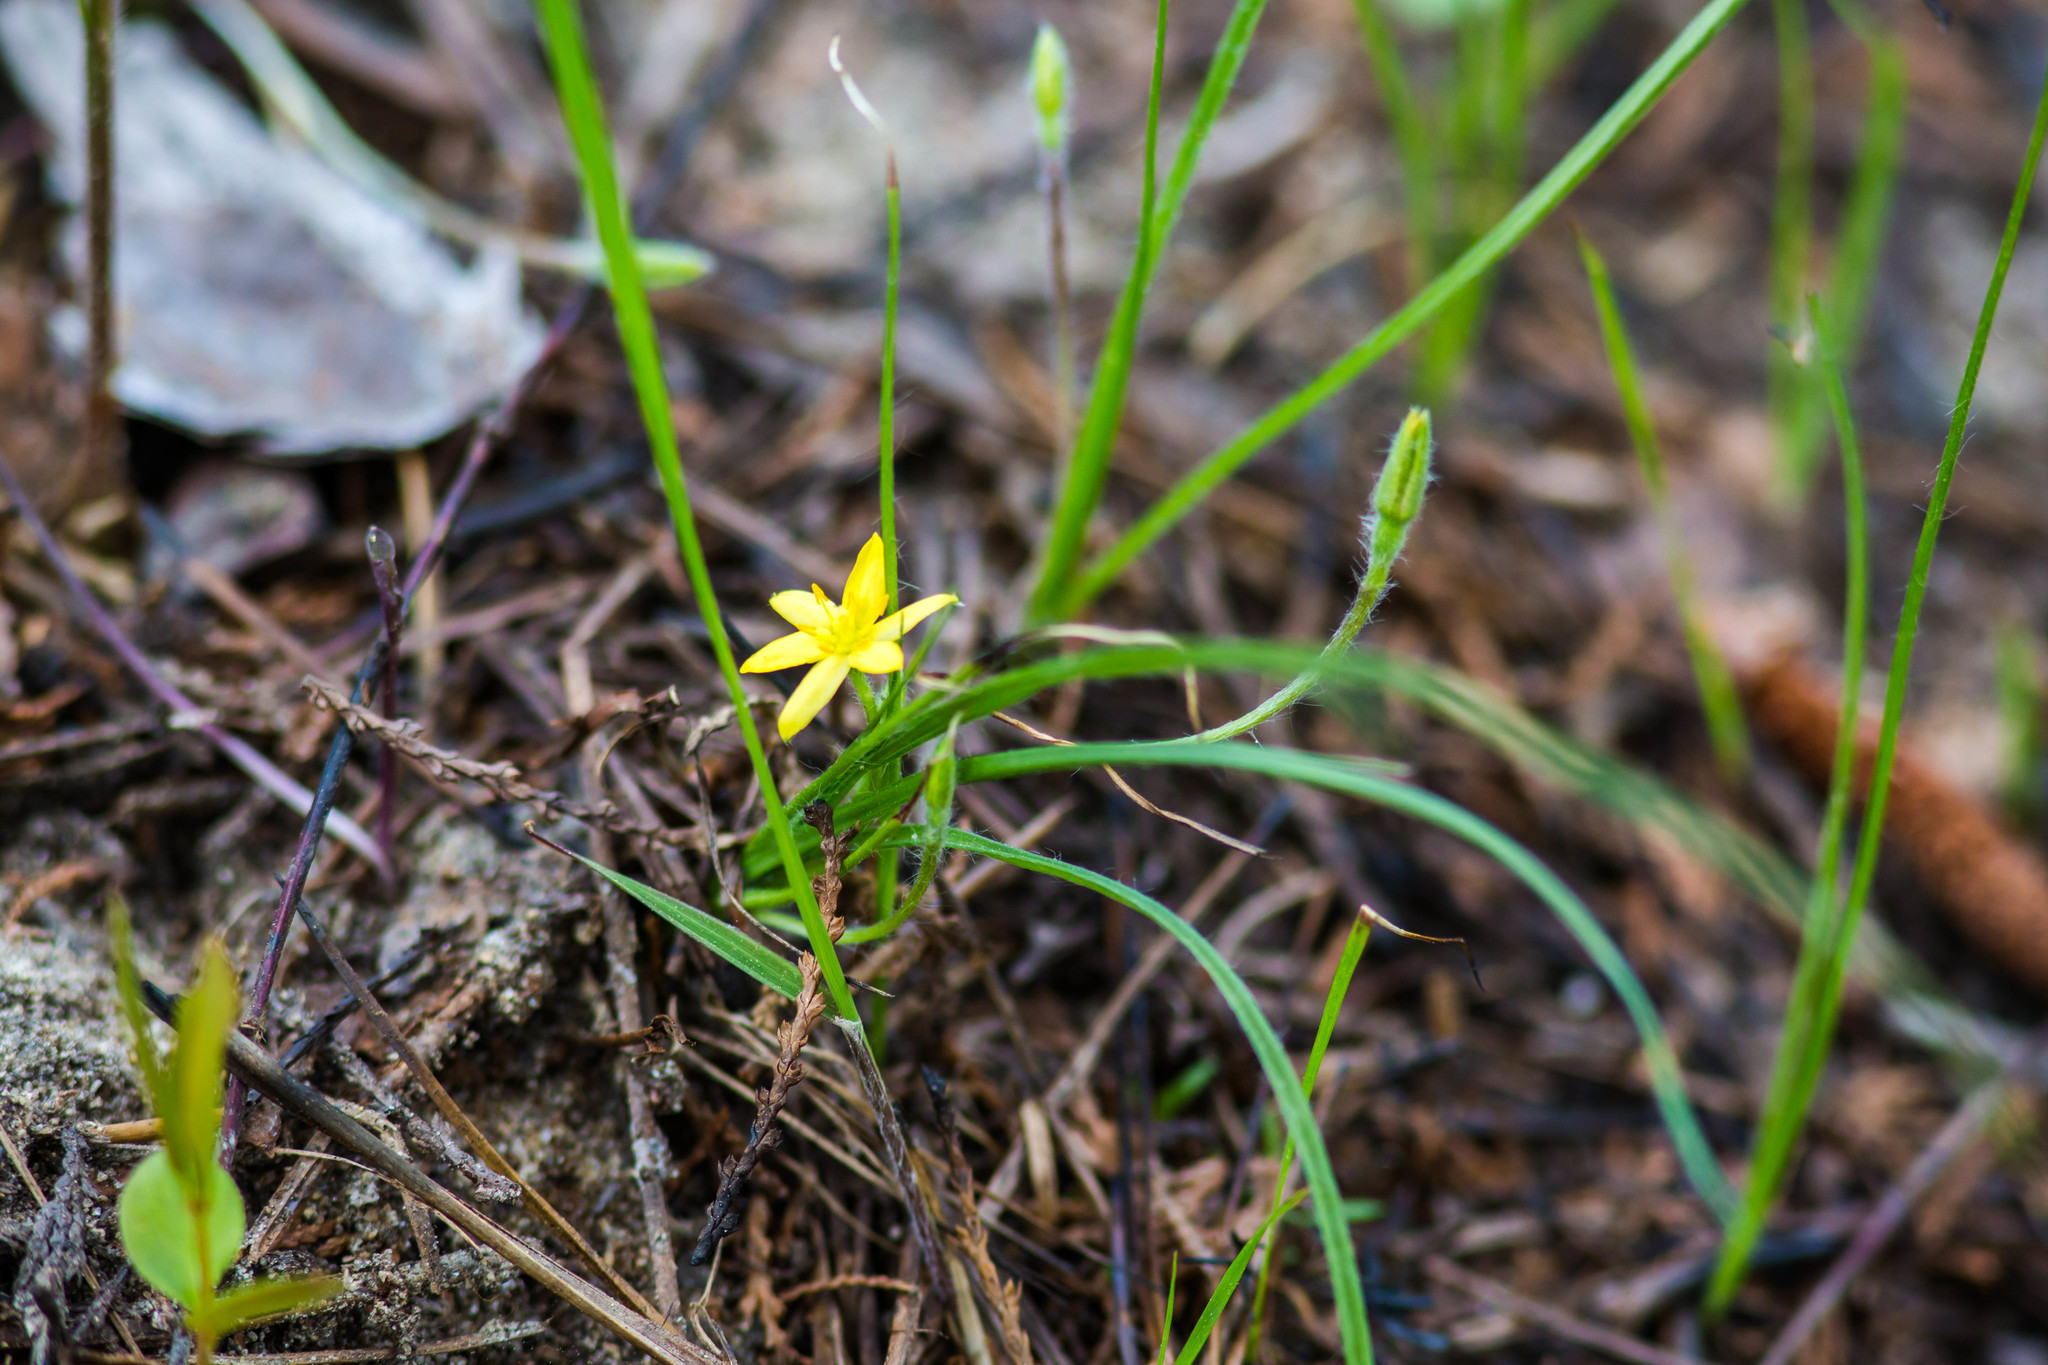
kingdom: Plantae
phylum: Tracheophyta
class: Liliopsida
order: Asparagales
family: Hypoxidaceae
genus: Hypoxis
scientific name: Hypoxis juncea
